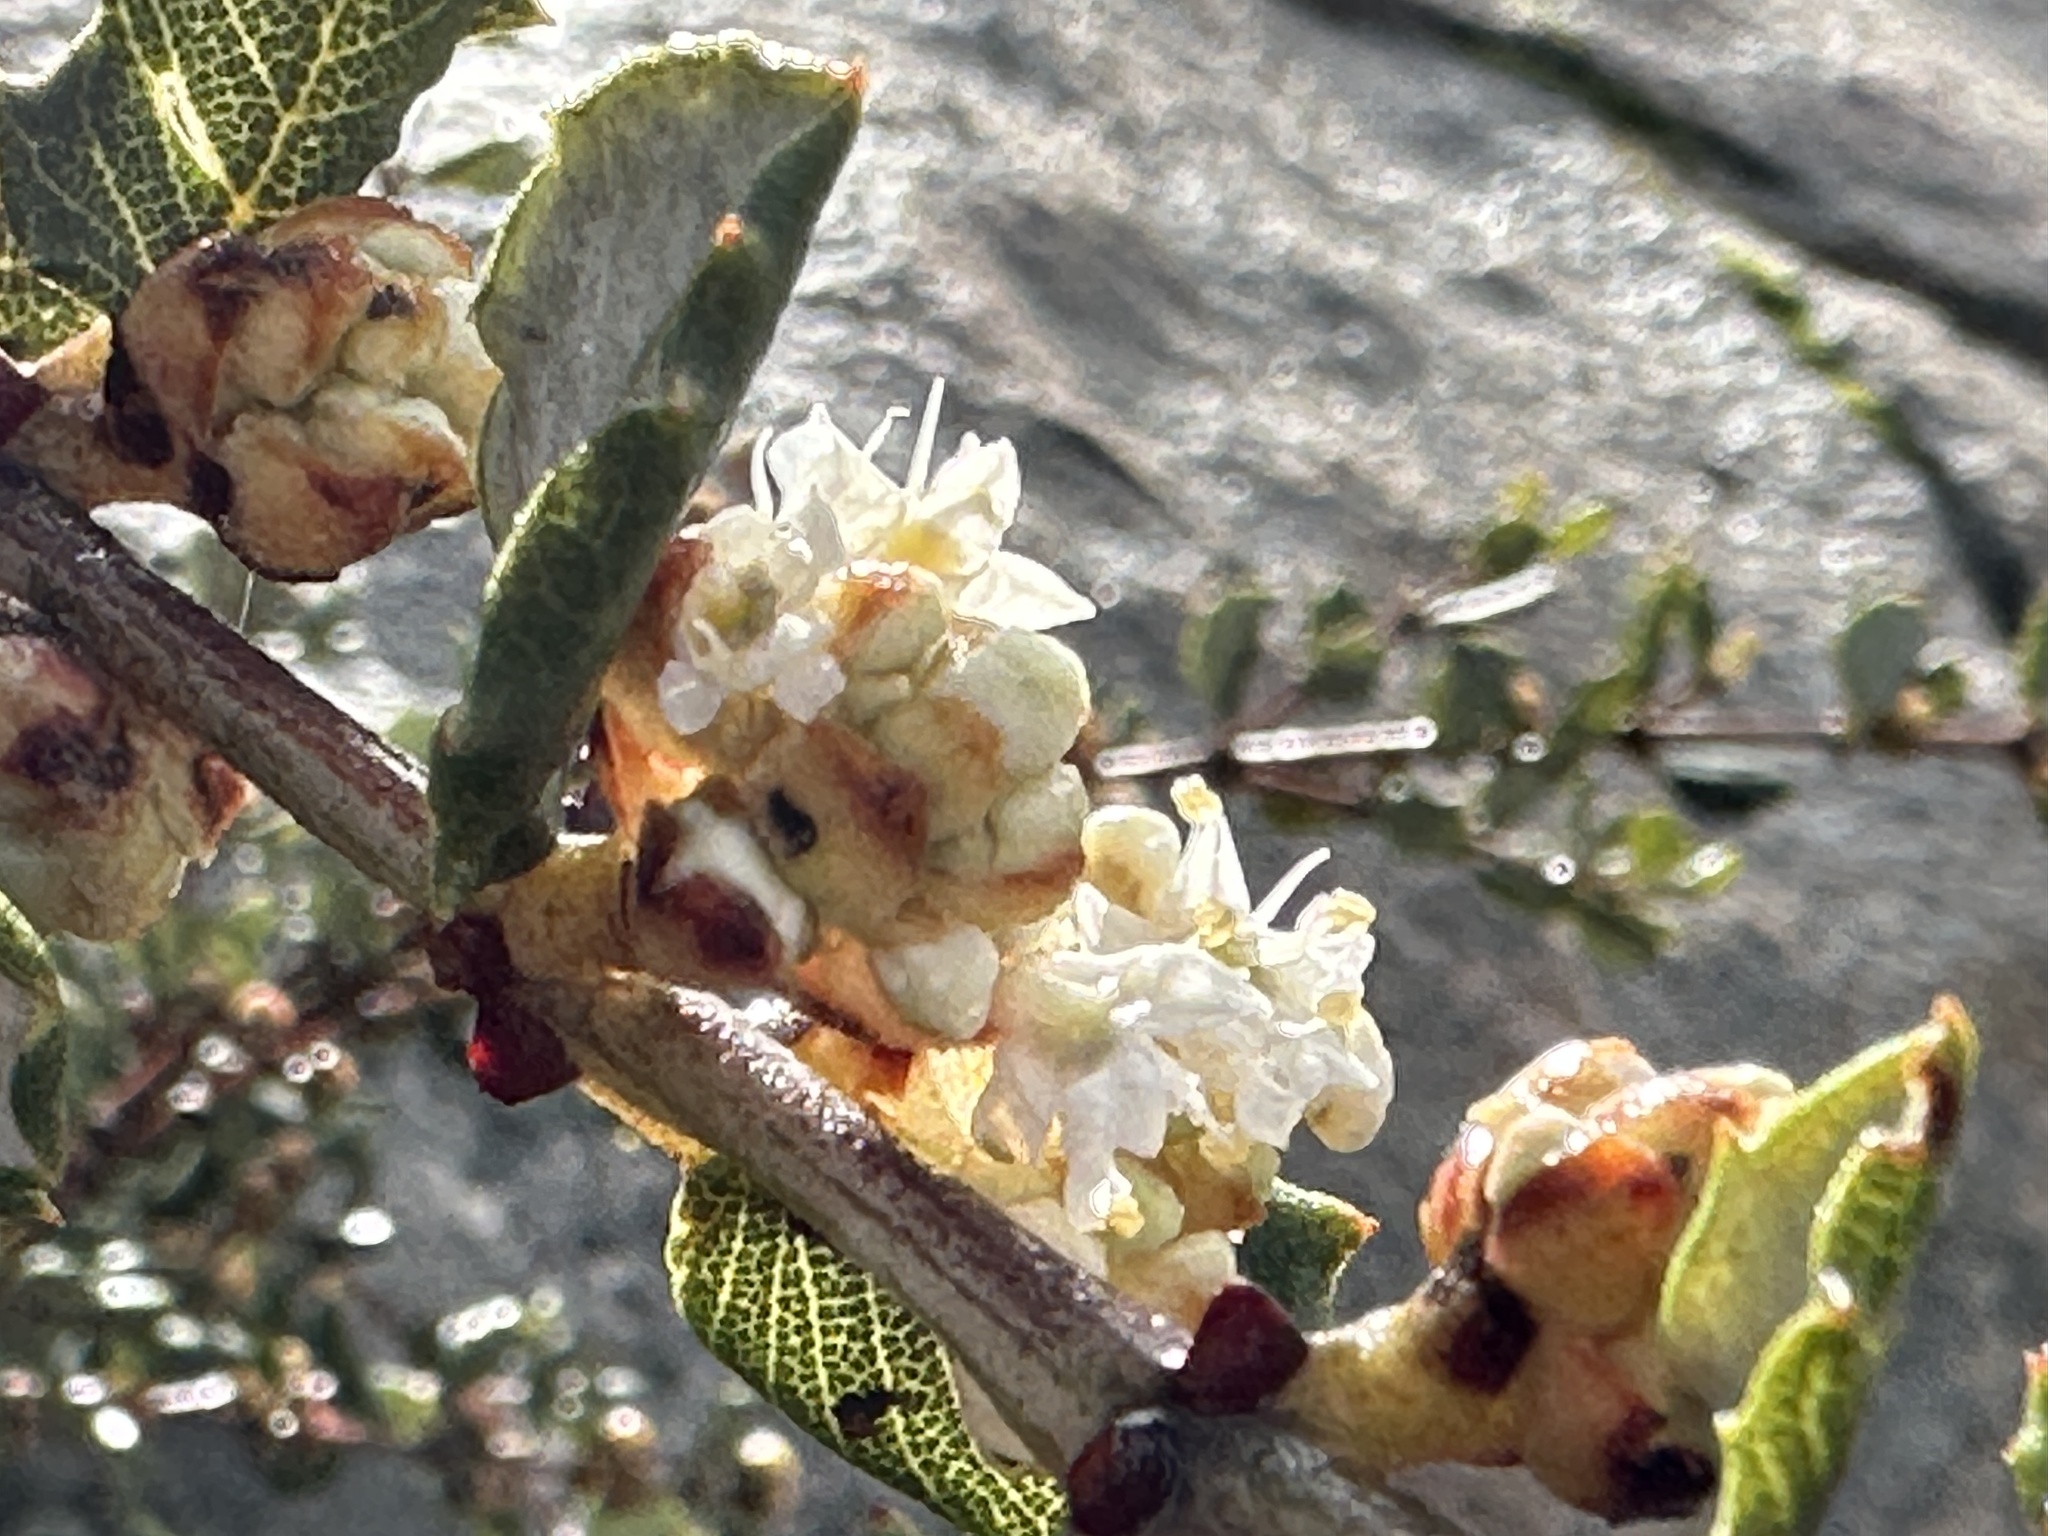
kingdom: Plantae
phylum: Tracheophyta
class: Magnoliopsida
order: Rosales
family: Rhamnaceae
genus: Ceanothus
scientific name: Ceanothus crassifolius
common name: Hoaryleaf ceanothus
